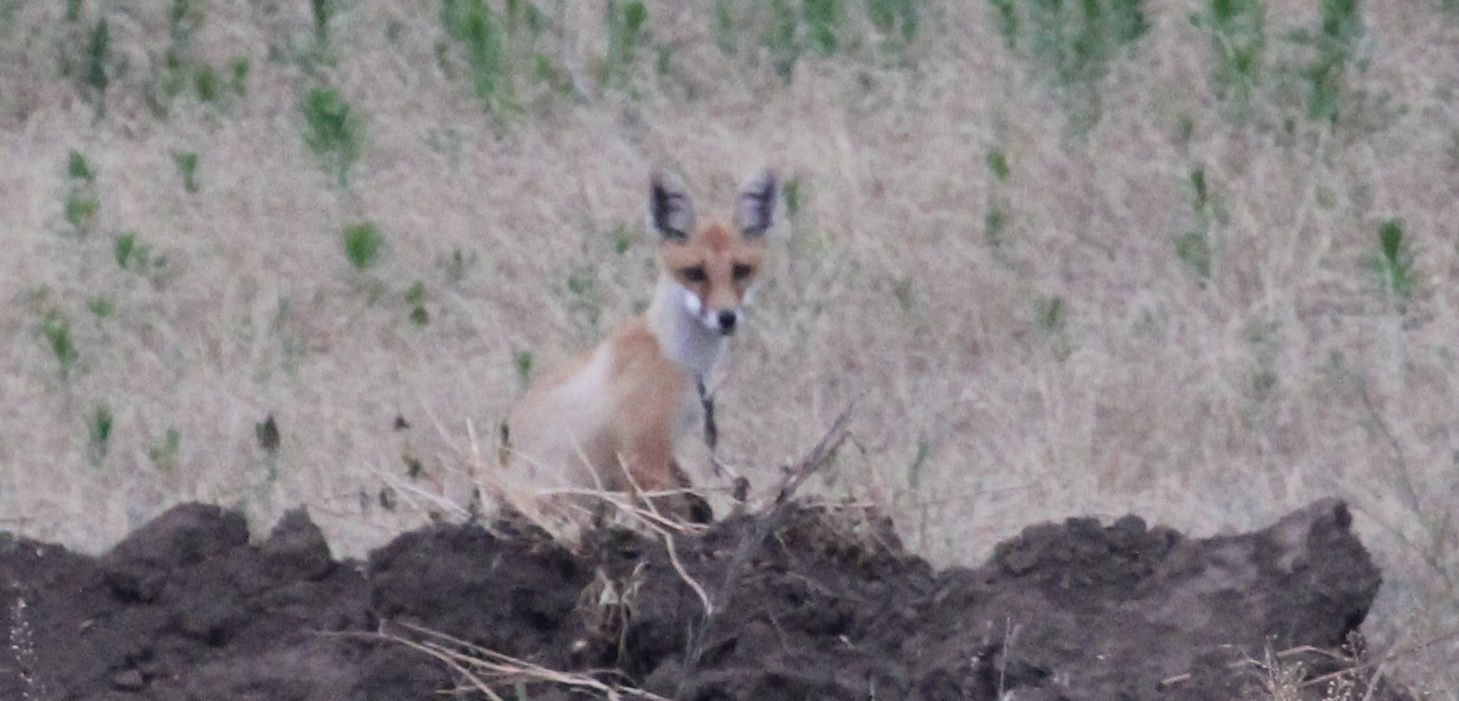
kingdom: Animalia
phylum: Chordata
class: Mammalia
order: Carnivora
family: Canidae
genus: Vulpes
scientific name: Vulpes vulpes
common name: Red fox
